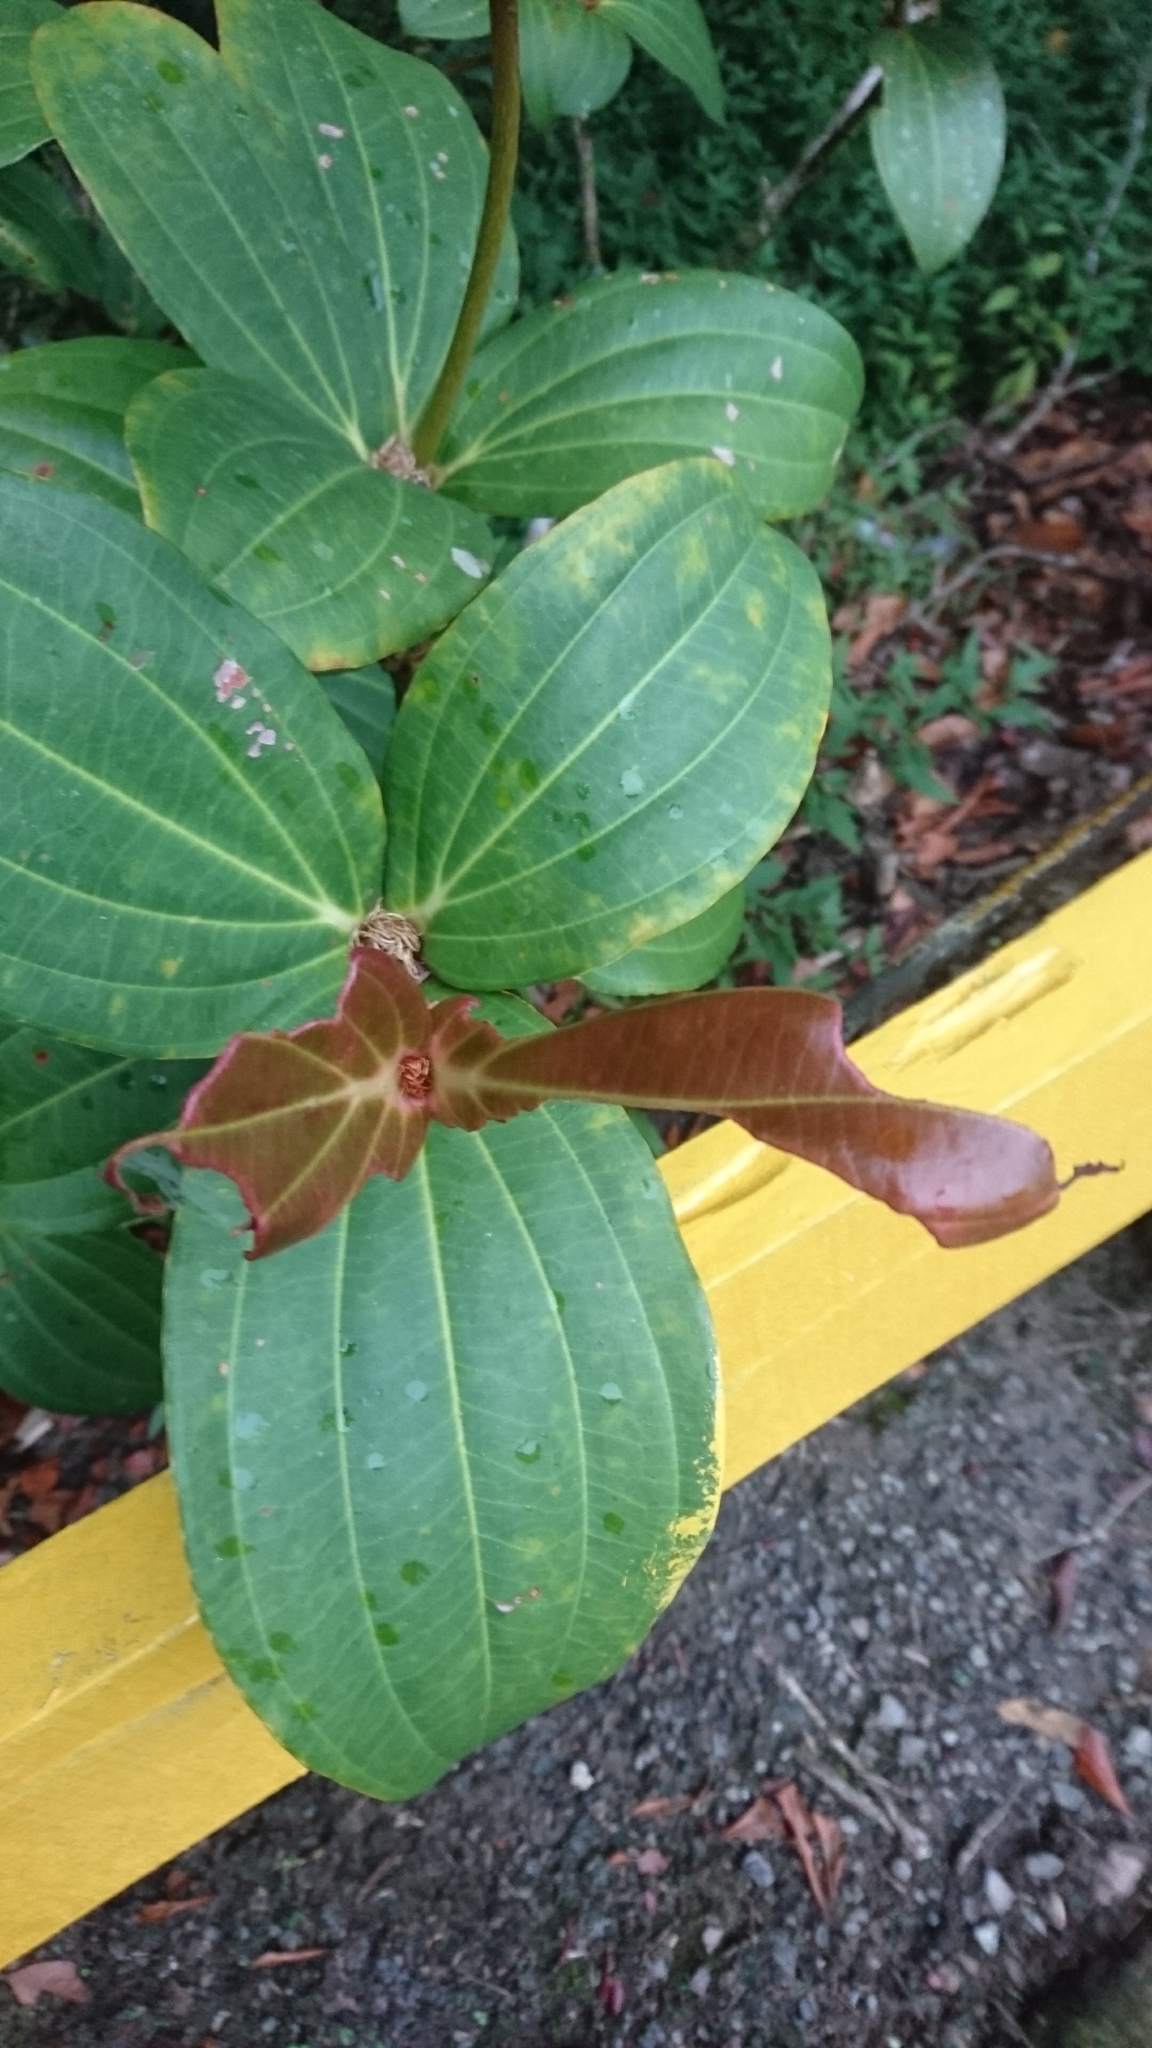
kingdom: Plantae
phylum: Tracheophyta
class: Magnoliopsida
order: Myrtales
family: Melastomataceae
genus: Medinilla
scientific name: Medinilla speciosa
